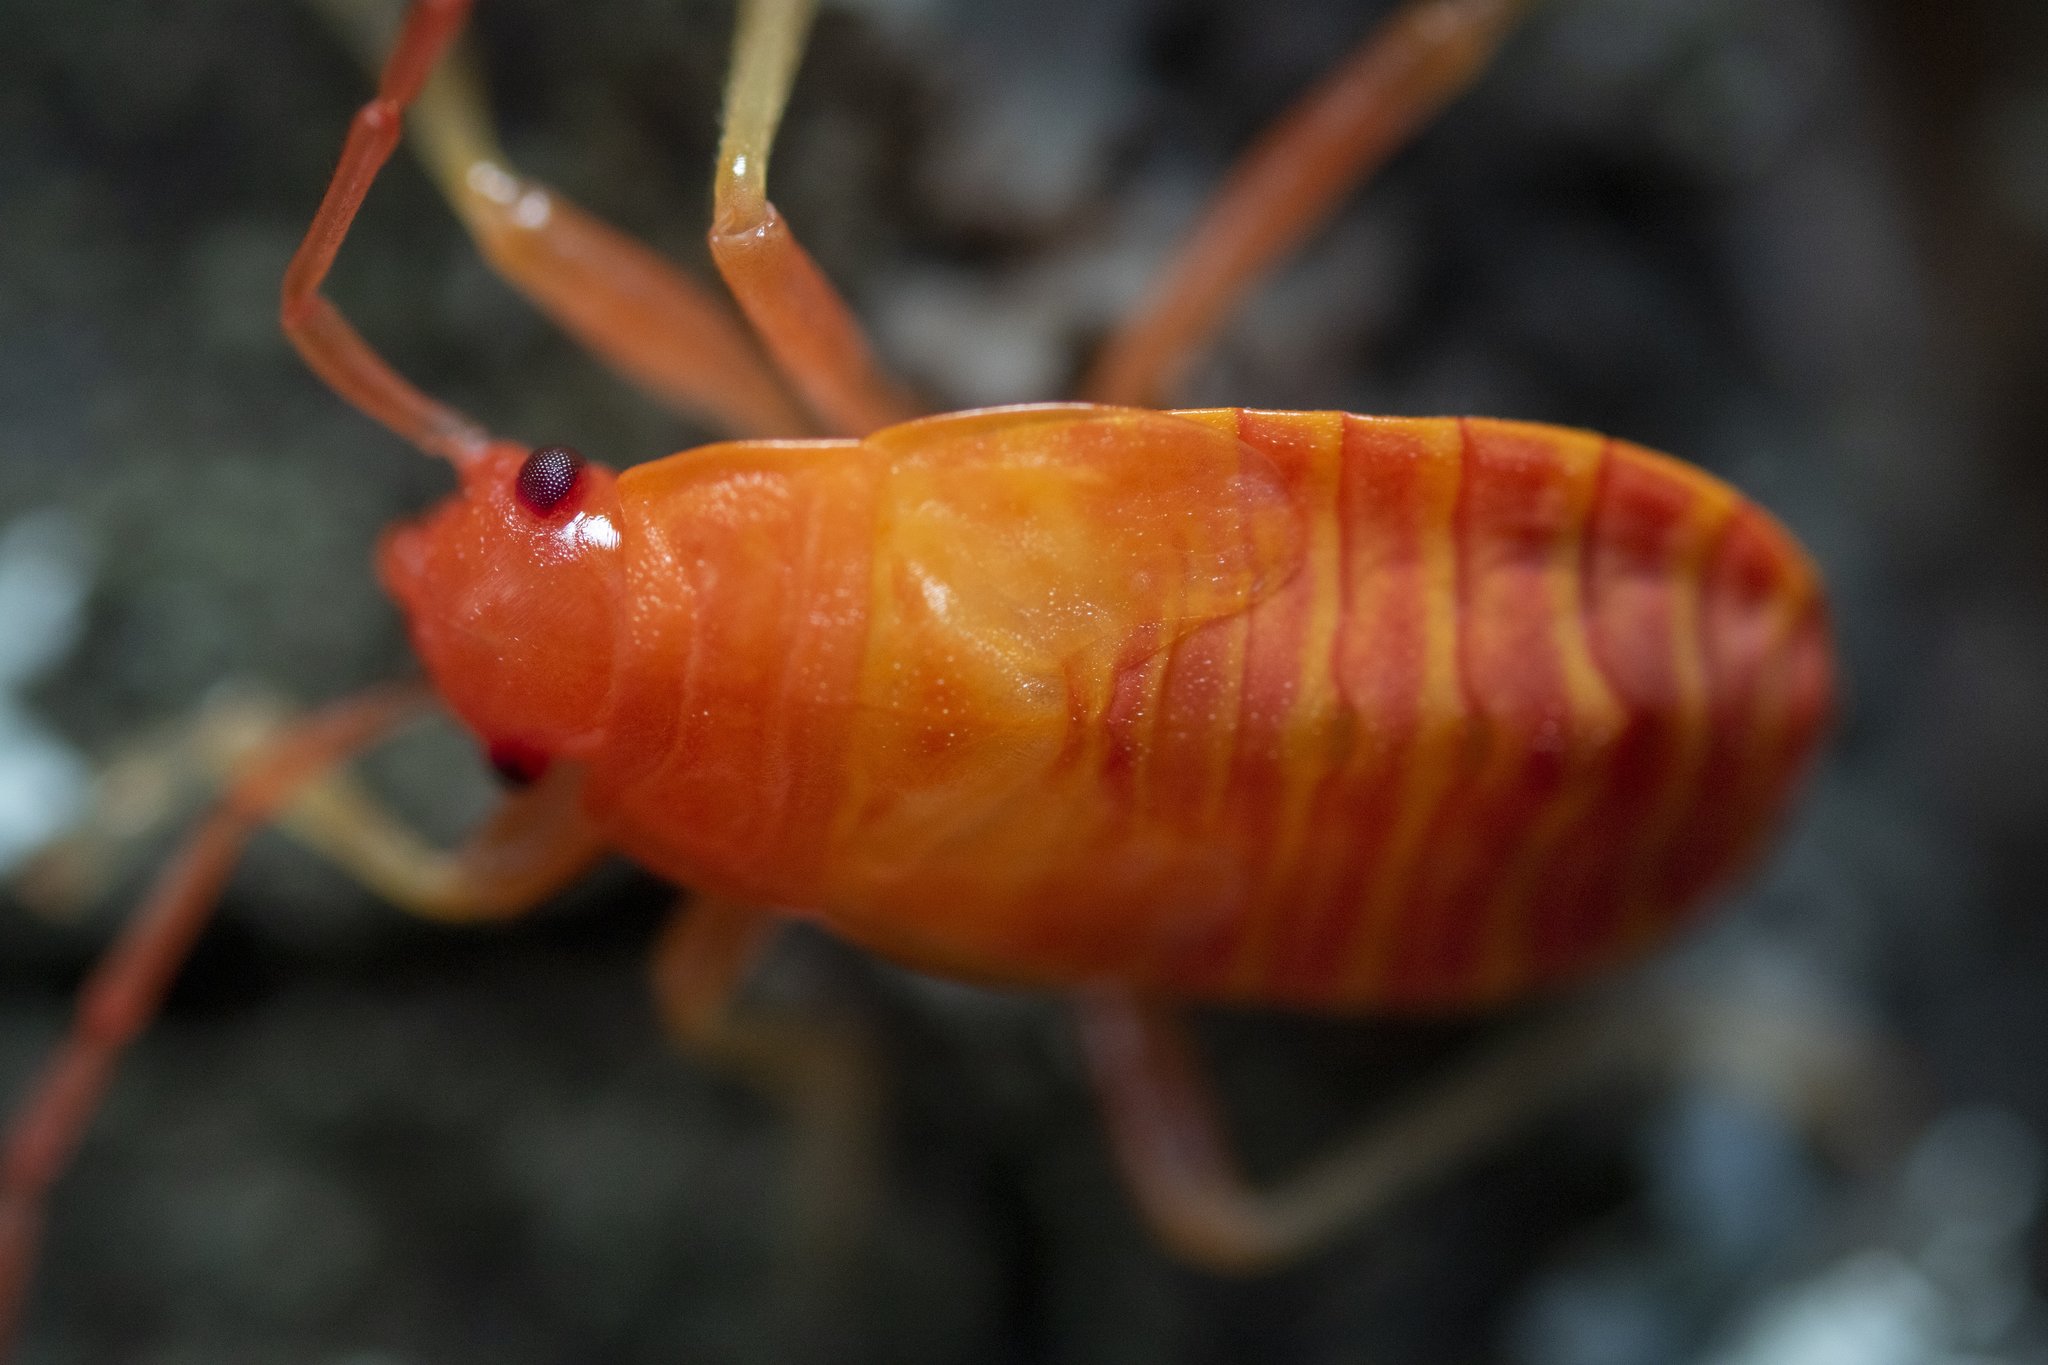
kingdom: Animalia
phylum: Arthropoda
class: Insecta
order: Hemiptera
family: Pyrrhocoridae
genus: Pyrrhocoris
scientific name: Pyrrhocoris apterus
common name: Firebug
